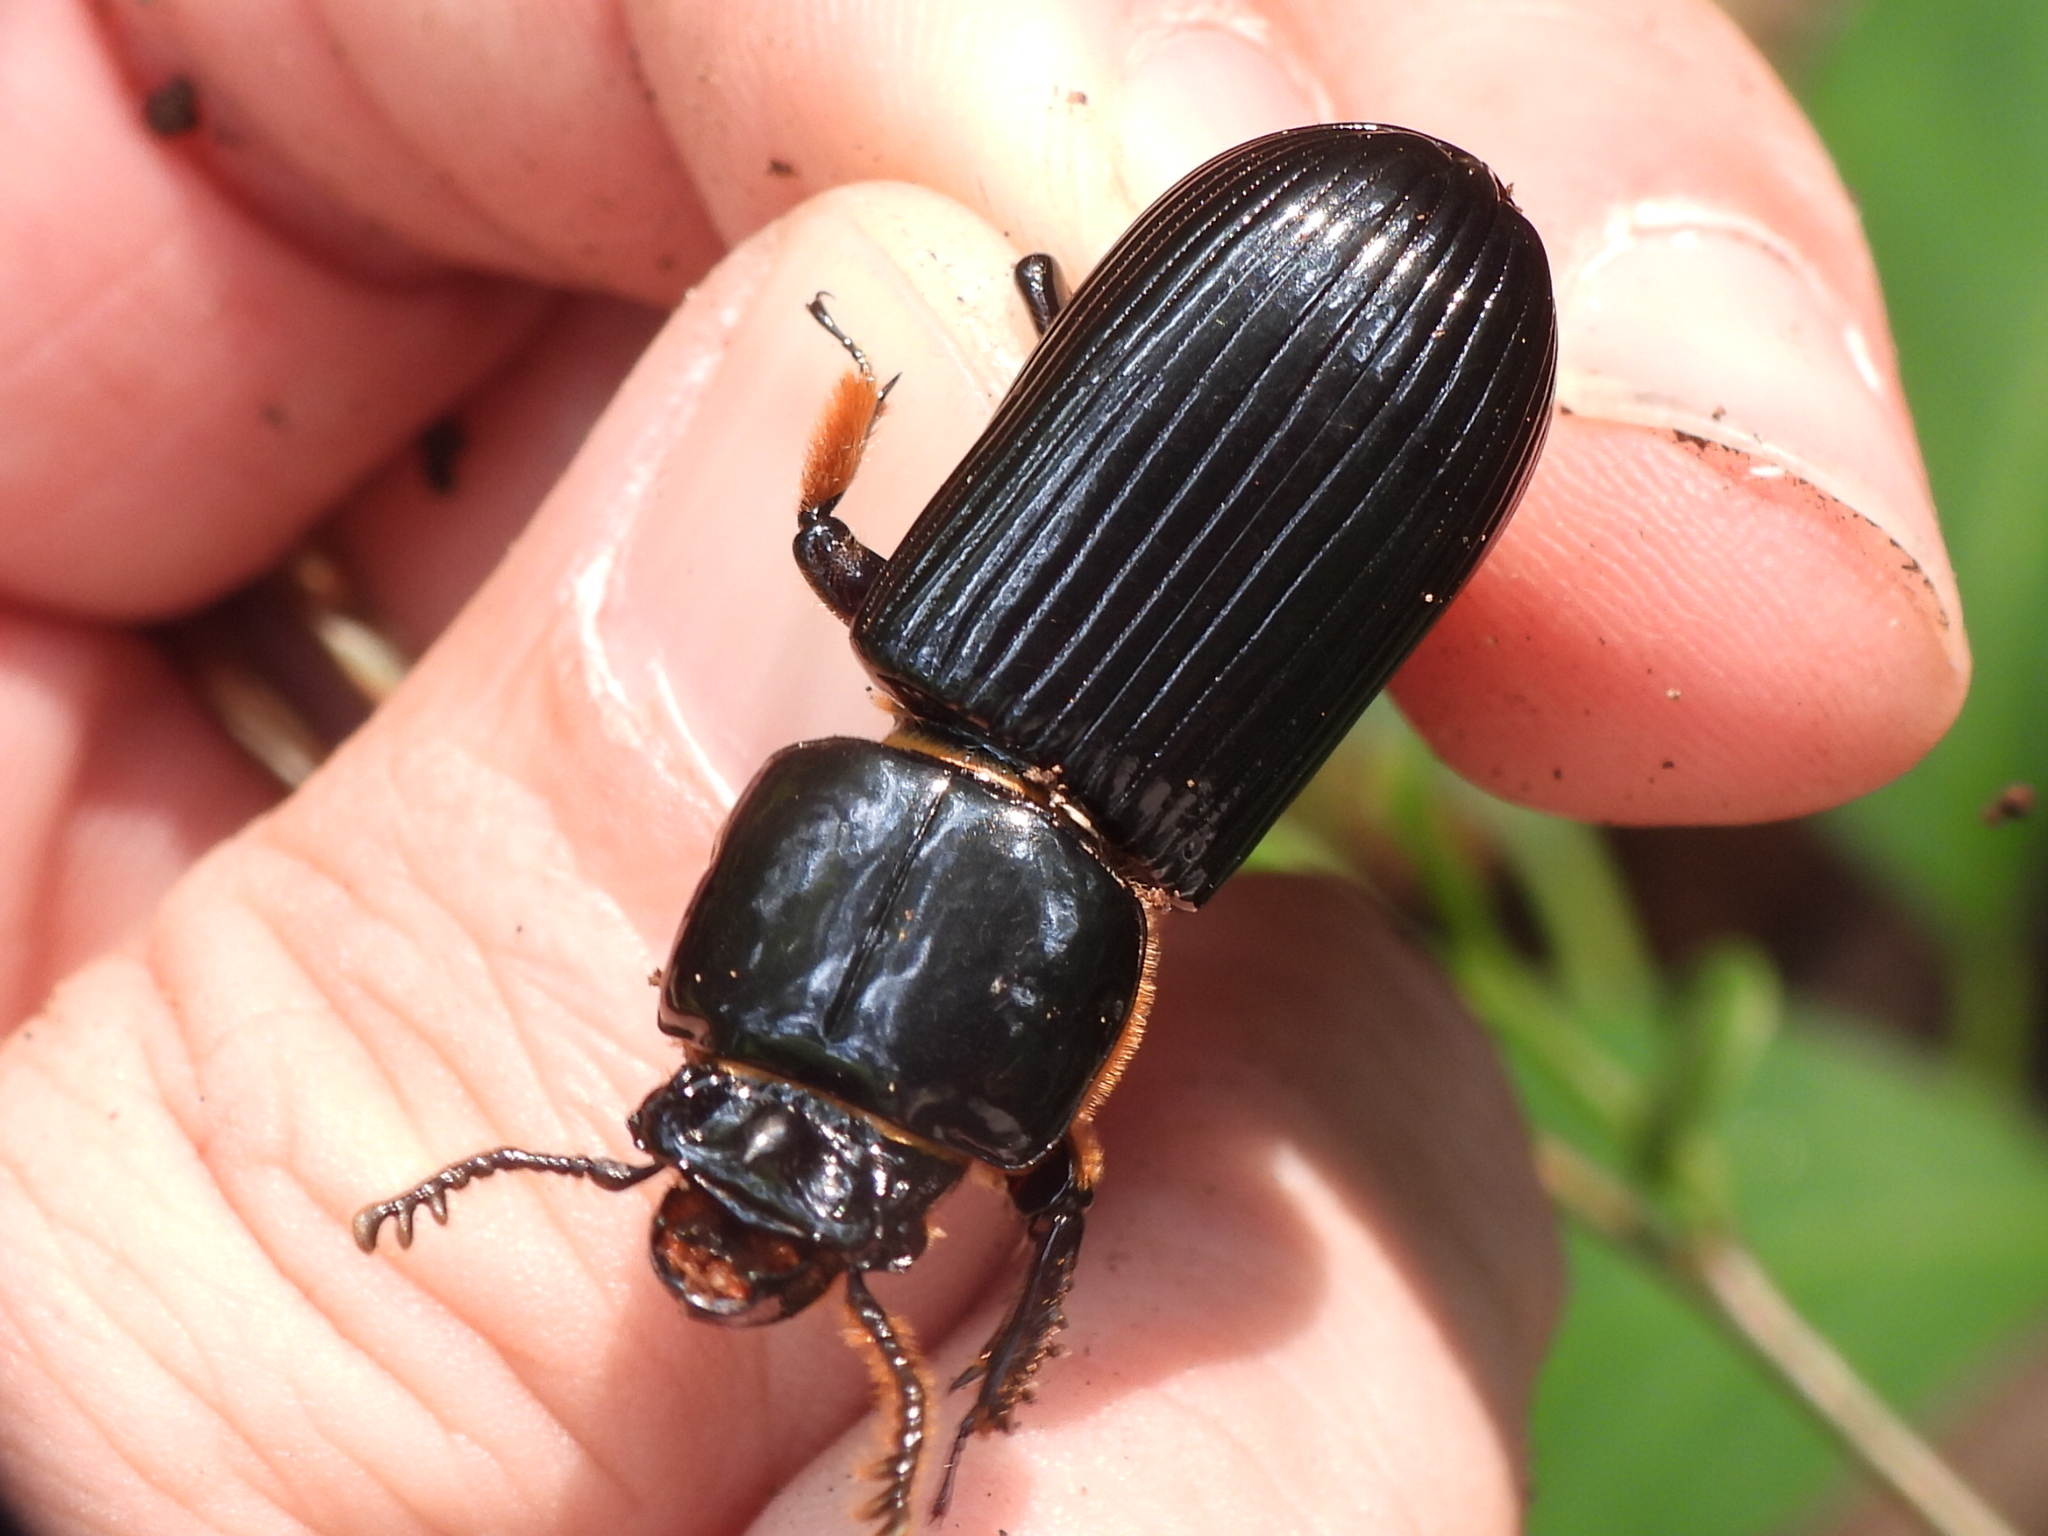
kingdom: Animalia
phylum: Arthropoda
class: Insecta
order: Coleoptera
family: Passalidae
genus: Odontotaenius
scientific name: Odontotaenius disjunctus
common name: Patent leather beetle
